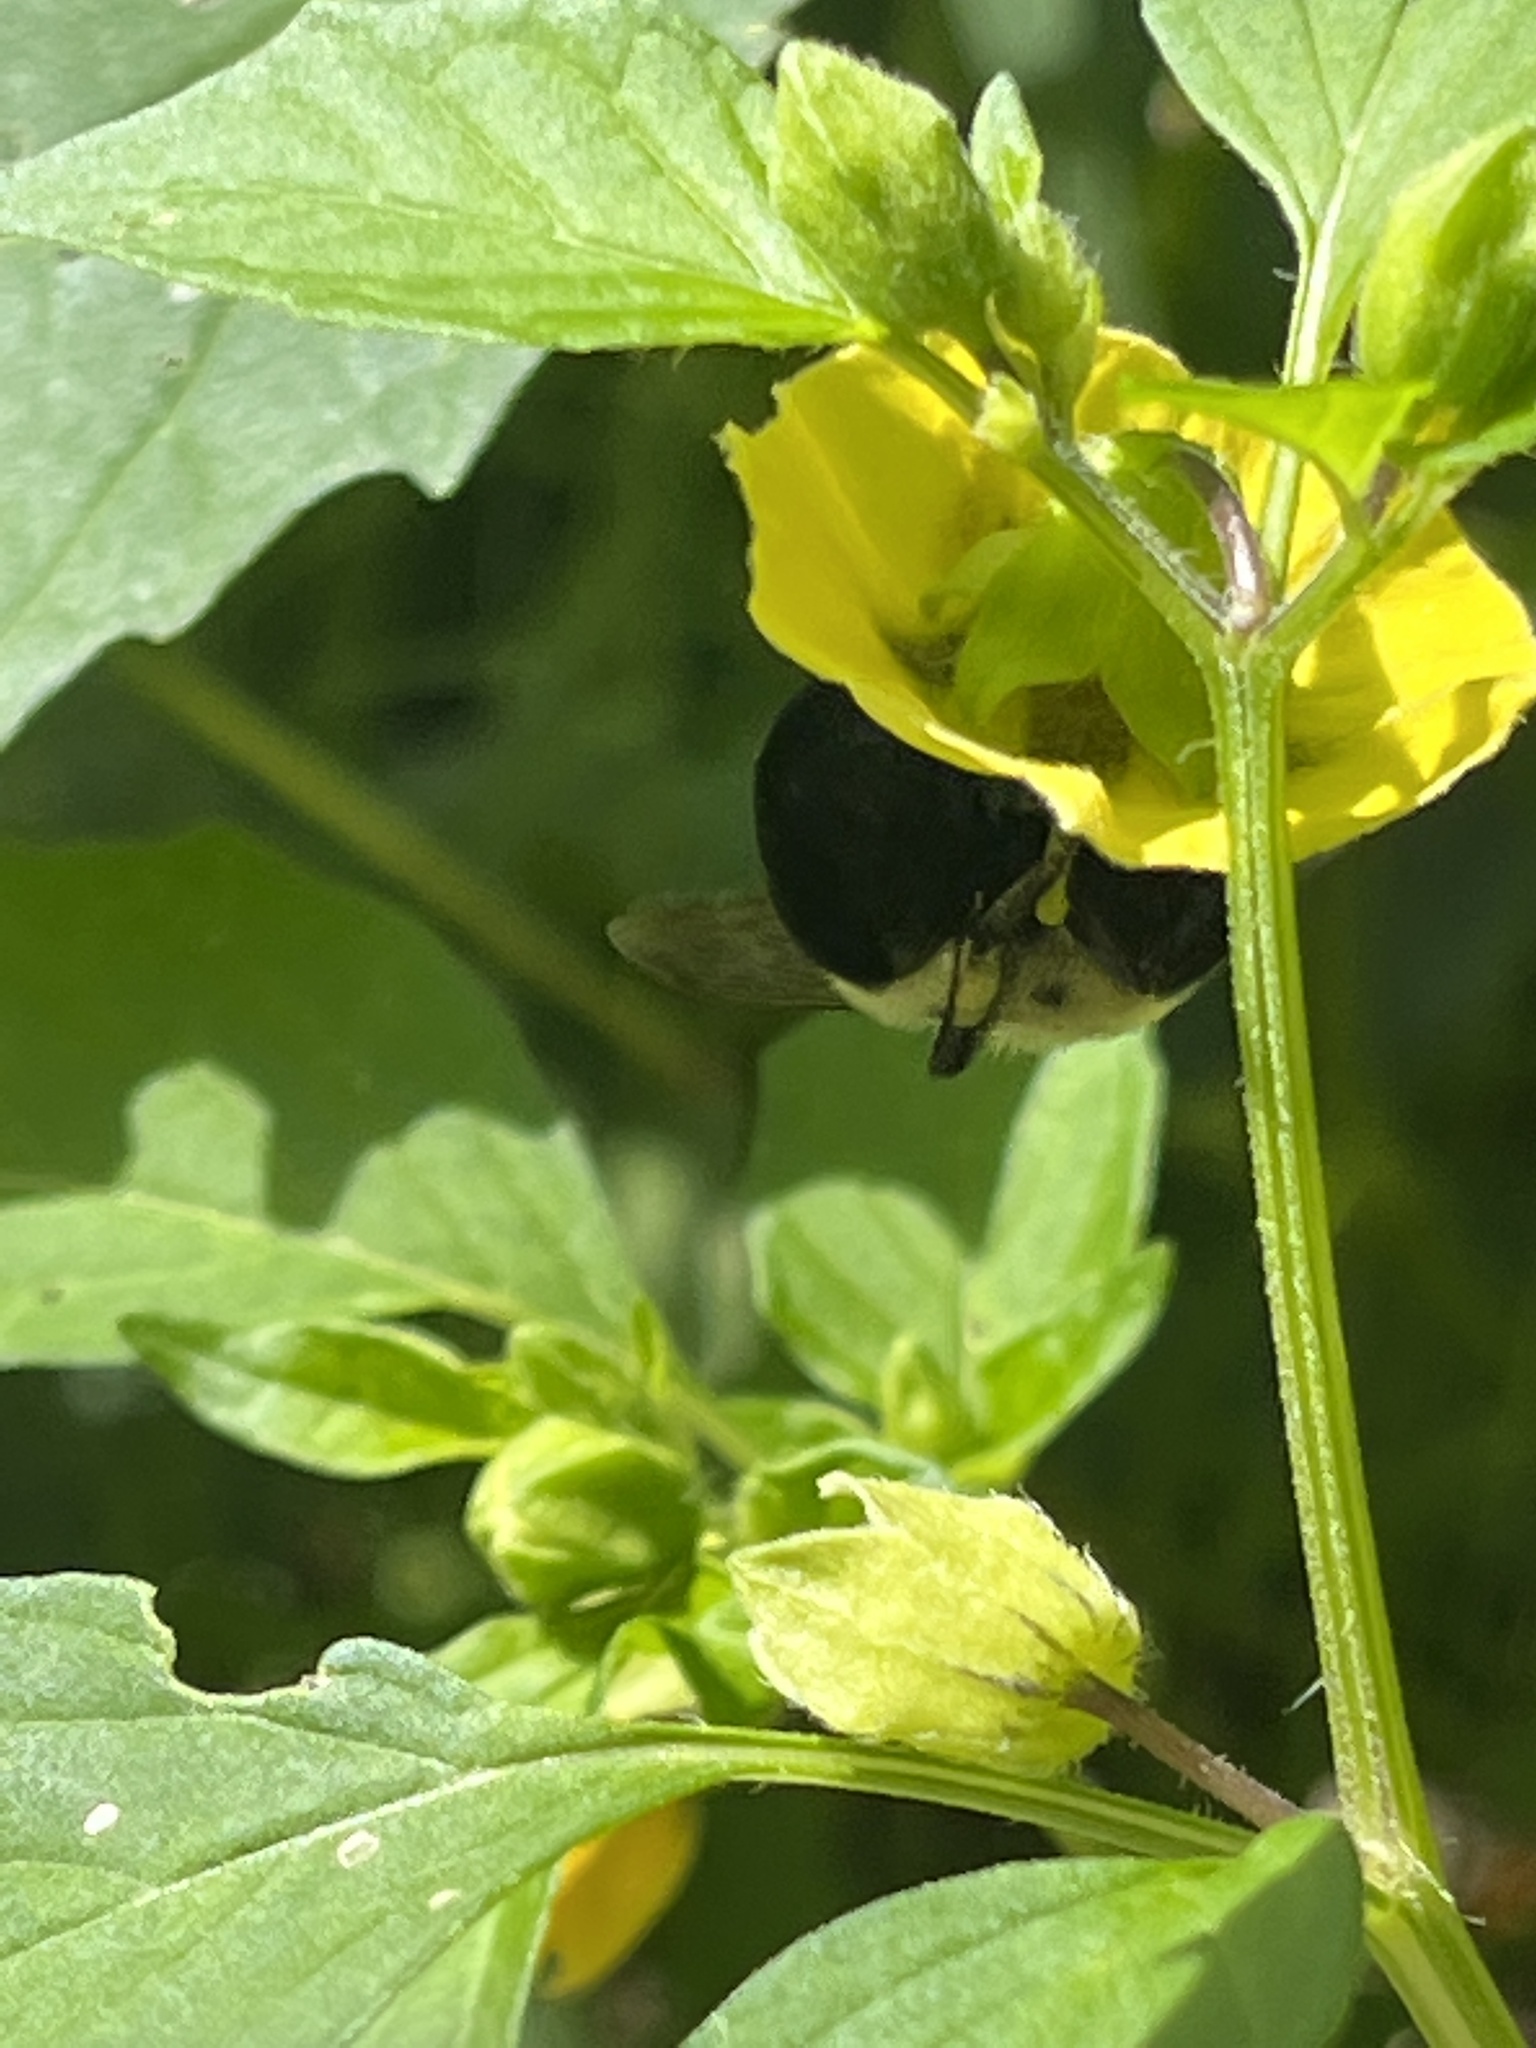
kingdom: Animalia
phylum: Arthropoda
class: Insecta
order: Hymenoptera
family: Apidae
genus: Bombus
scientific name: Bombus impatiens
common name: Common eastern bumble bee
